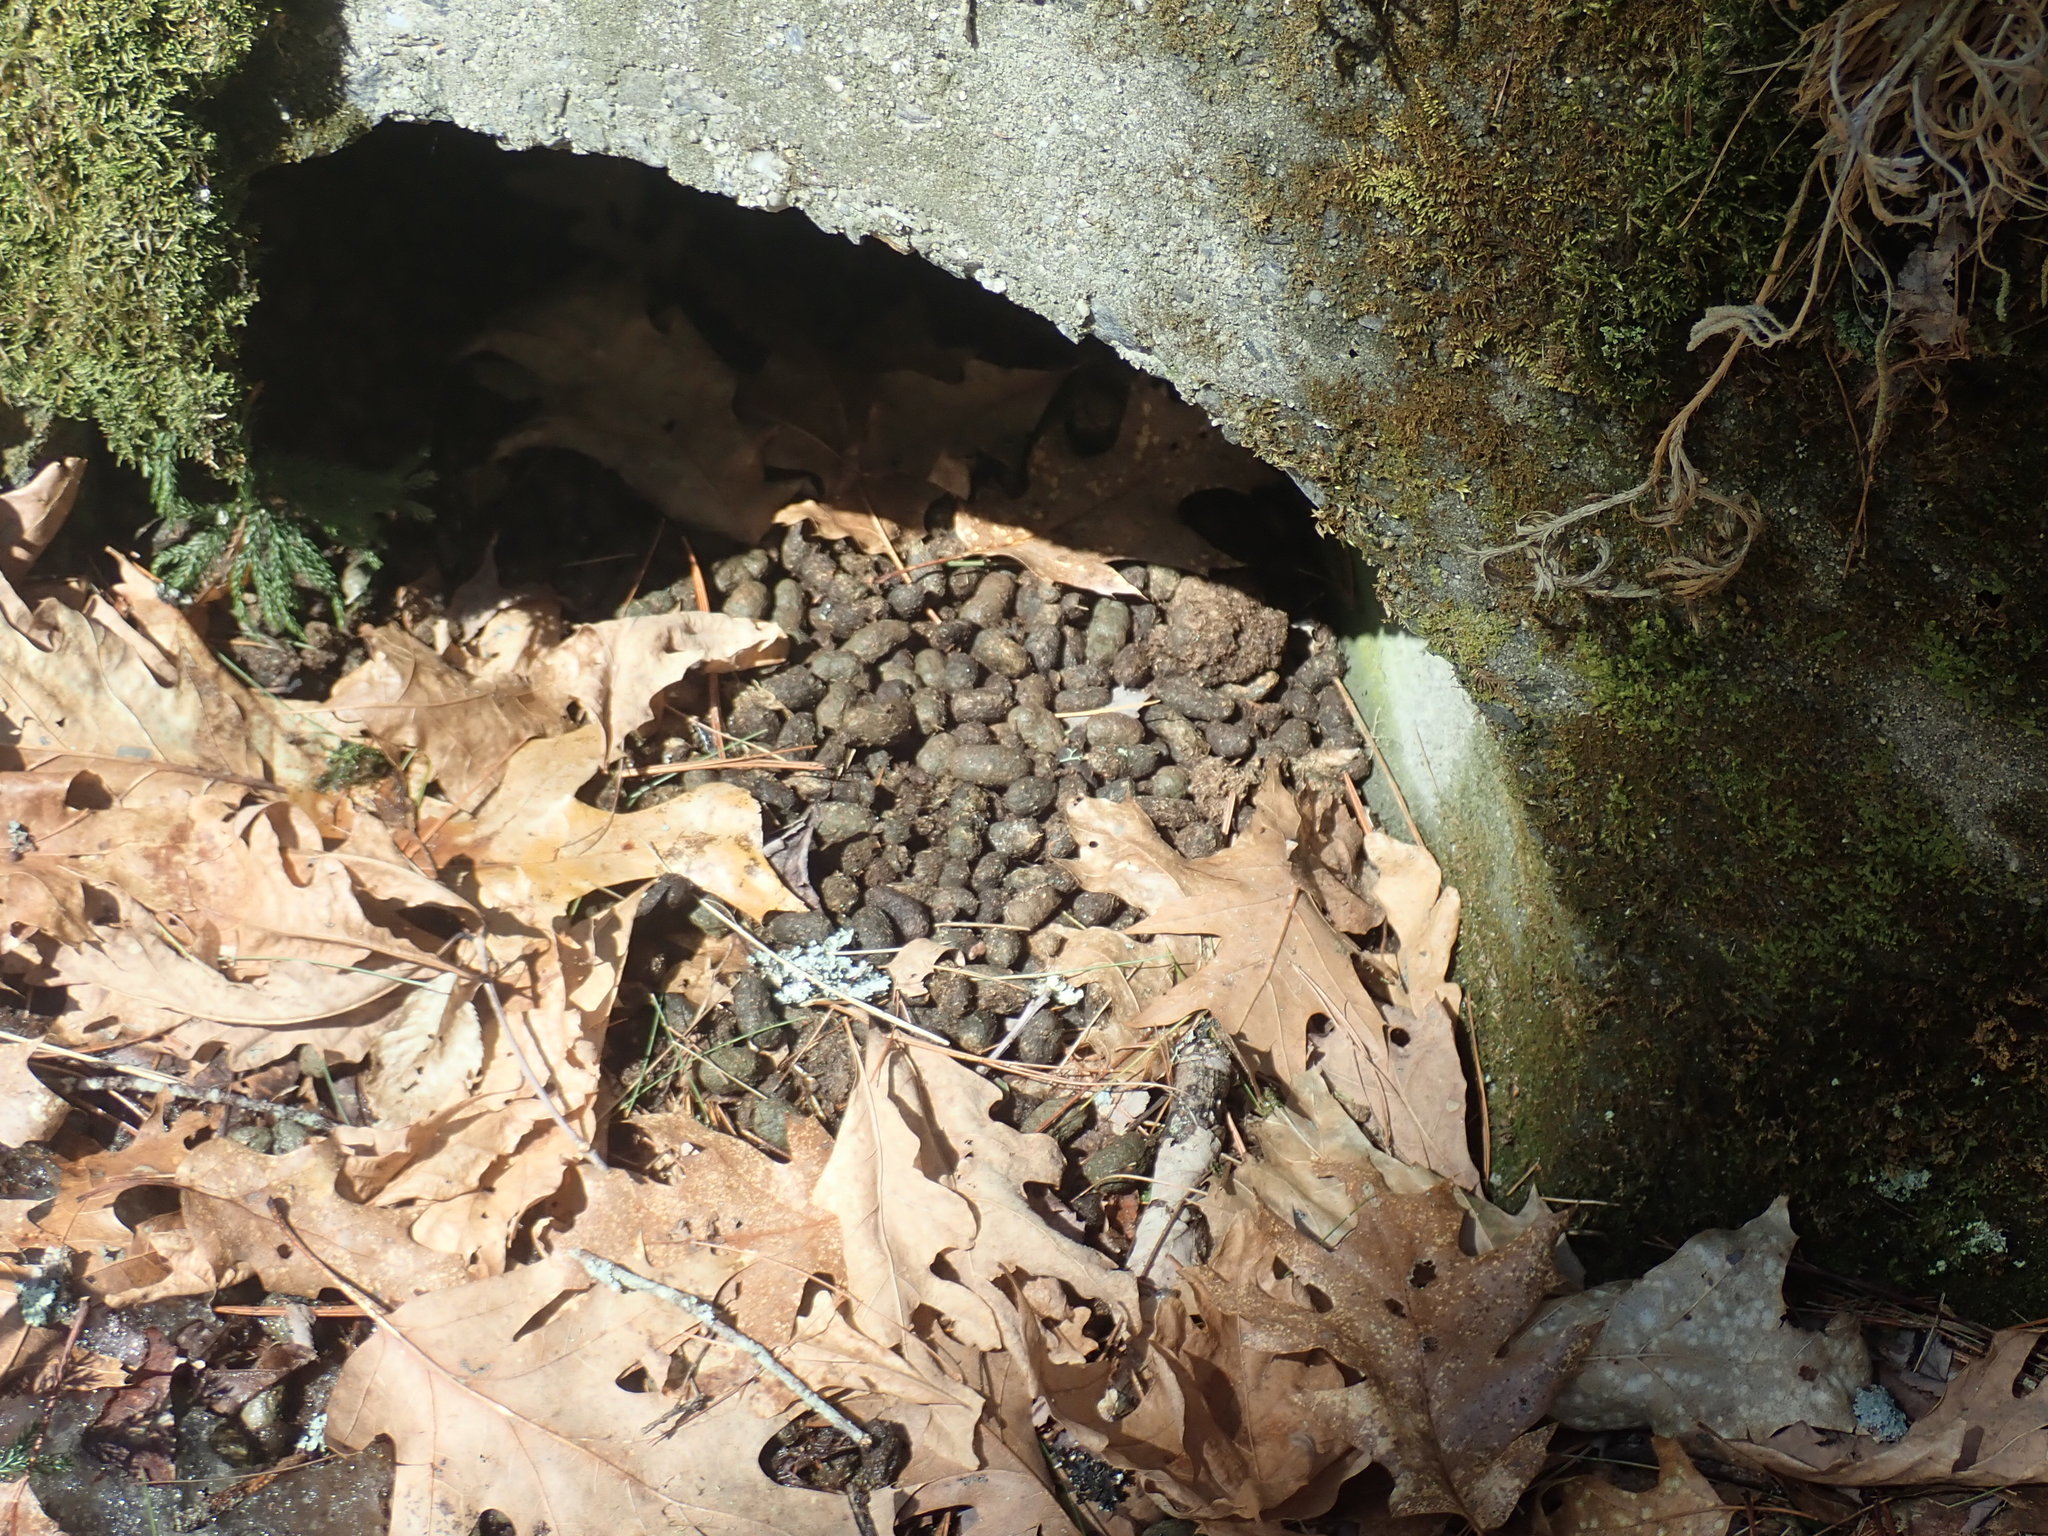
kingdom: Animalia
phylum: Chordata
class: Mammalia
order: Rodentia
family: Erethizontidae
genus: Erethizon
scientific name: Erethizon dorsatus
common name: North american porcupine
